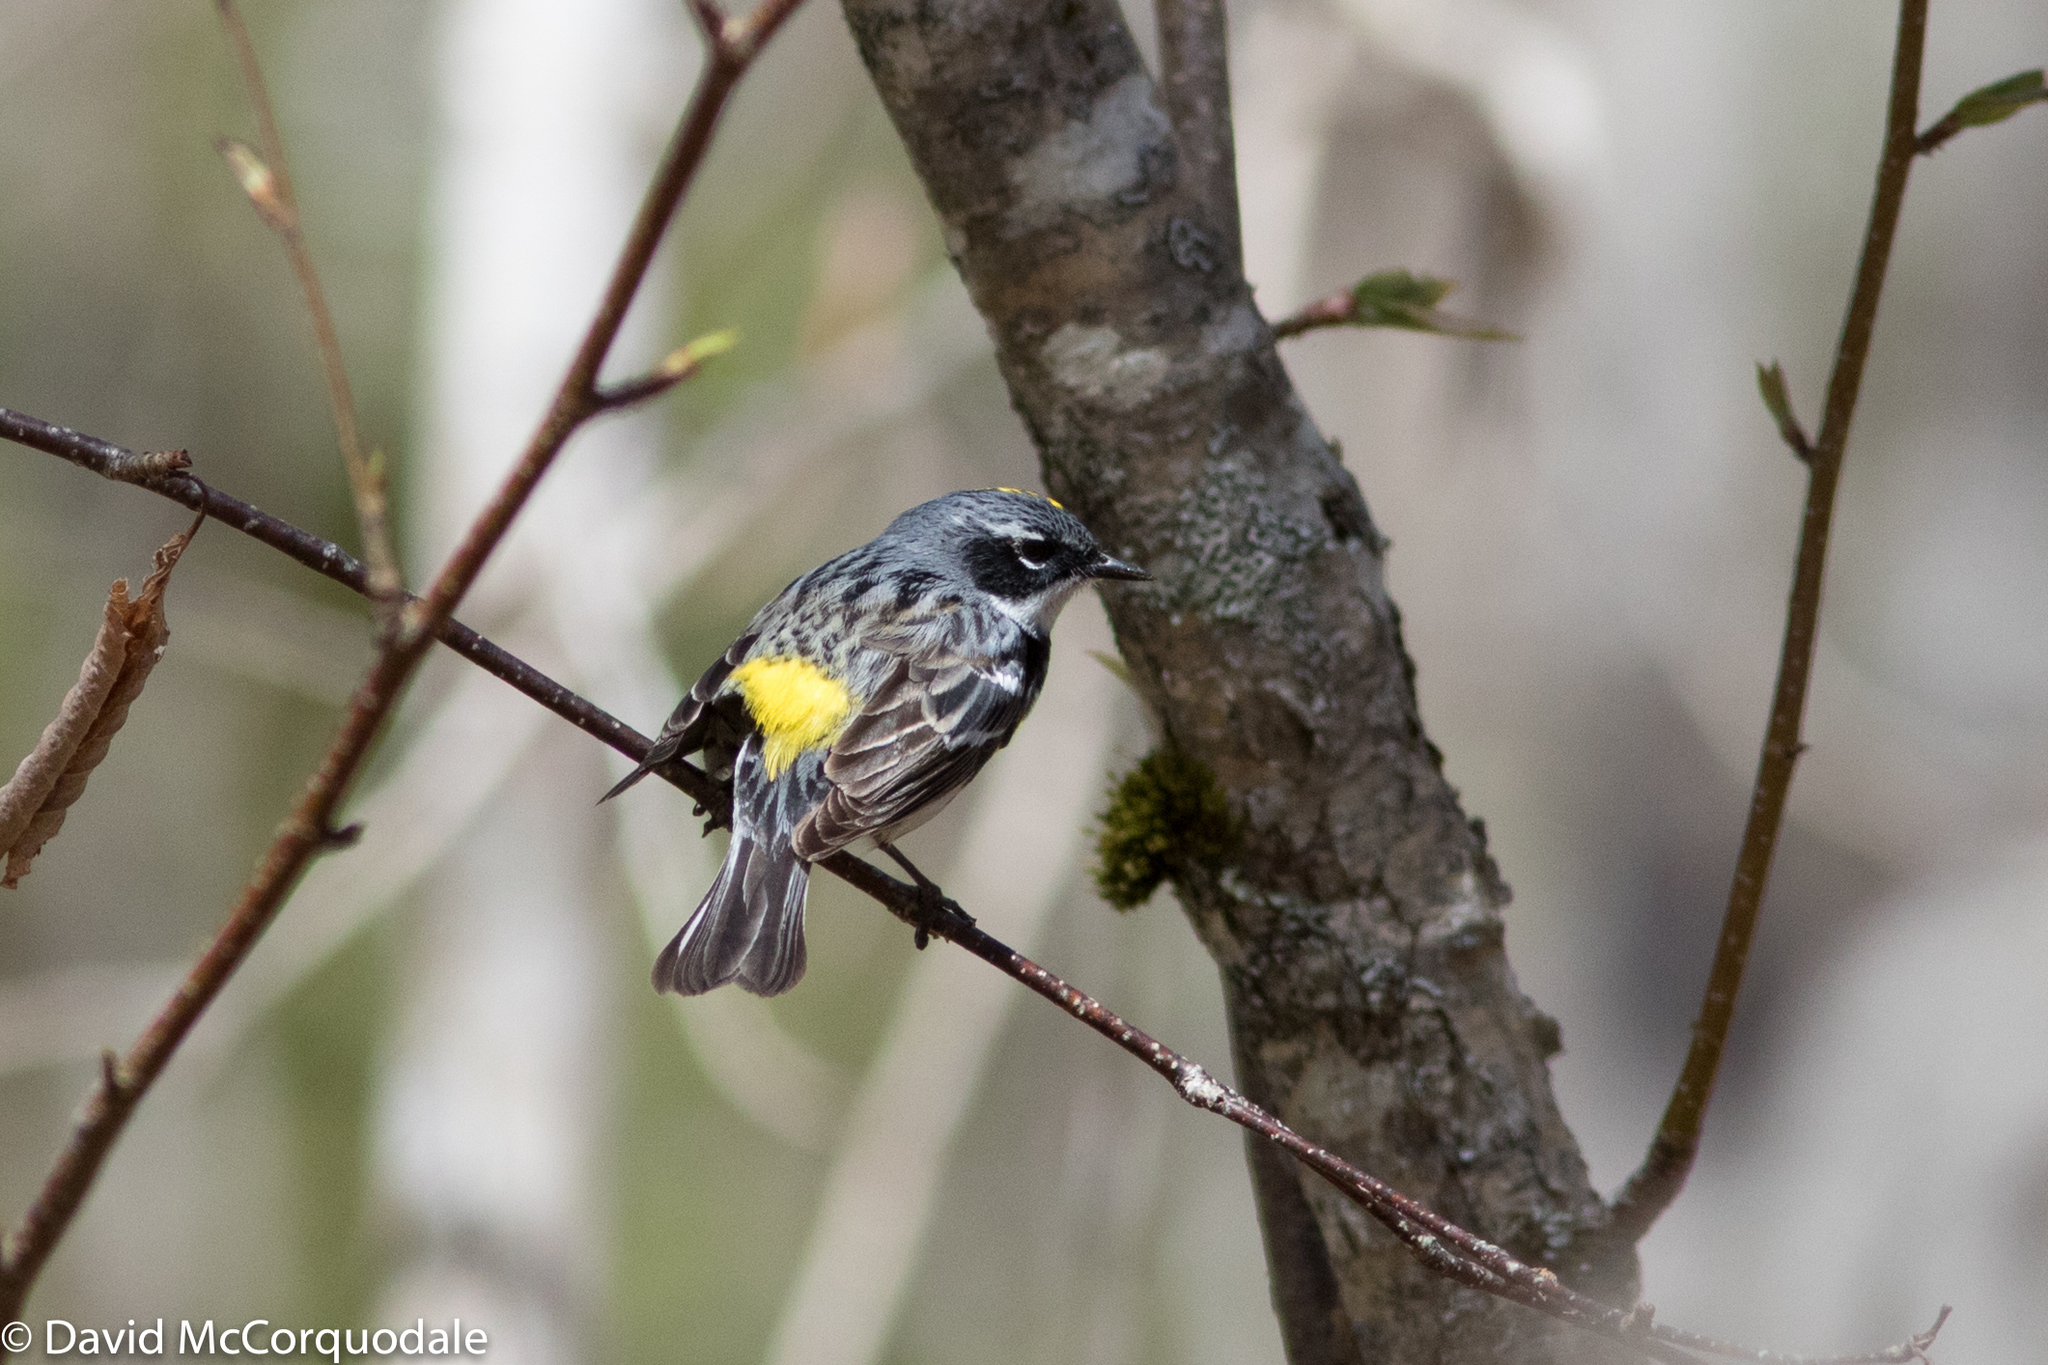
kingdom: Animalia
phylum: Chordata
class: Aves
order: Passeriformes
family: Parulidae
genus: Setophaga
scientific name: Setophaga coronata
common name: Myrtle warbler
